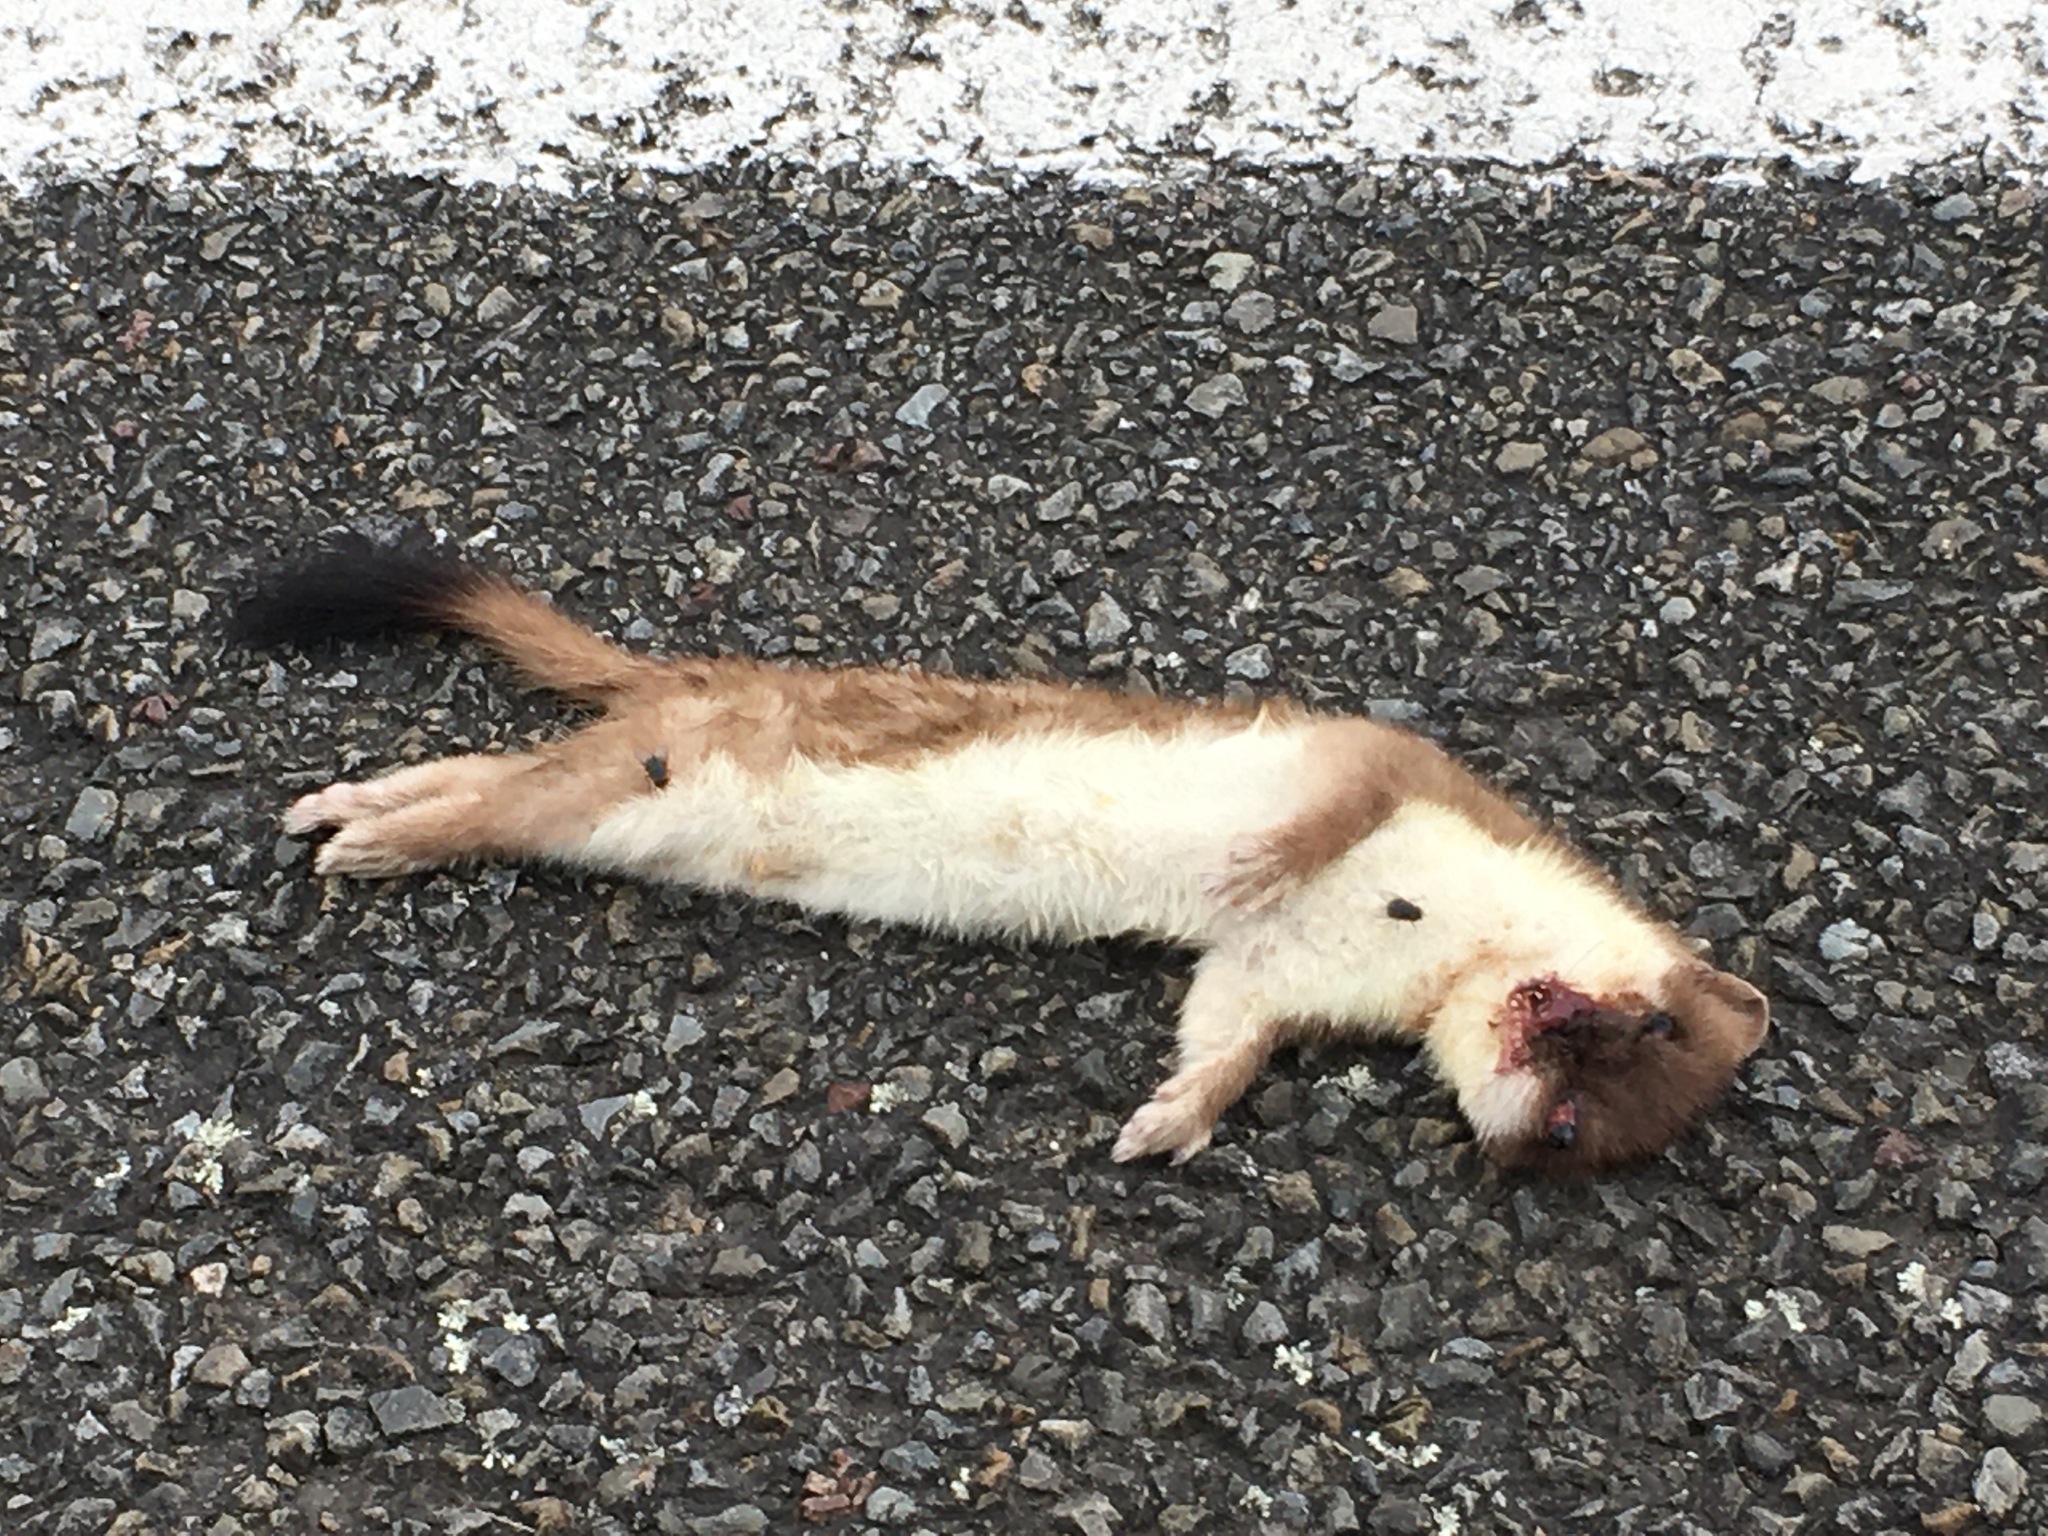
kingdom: Animalia
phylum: Chordata
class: Mammalia
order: Carnivora
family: Mustelidae
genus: Mustela
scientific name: Mustela erminea
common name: Stoat
